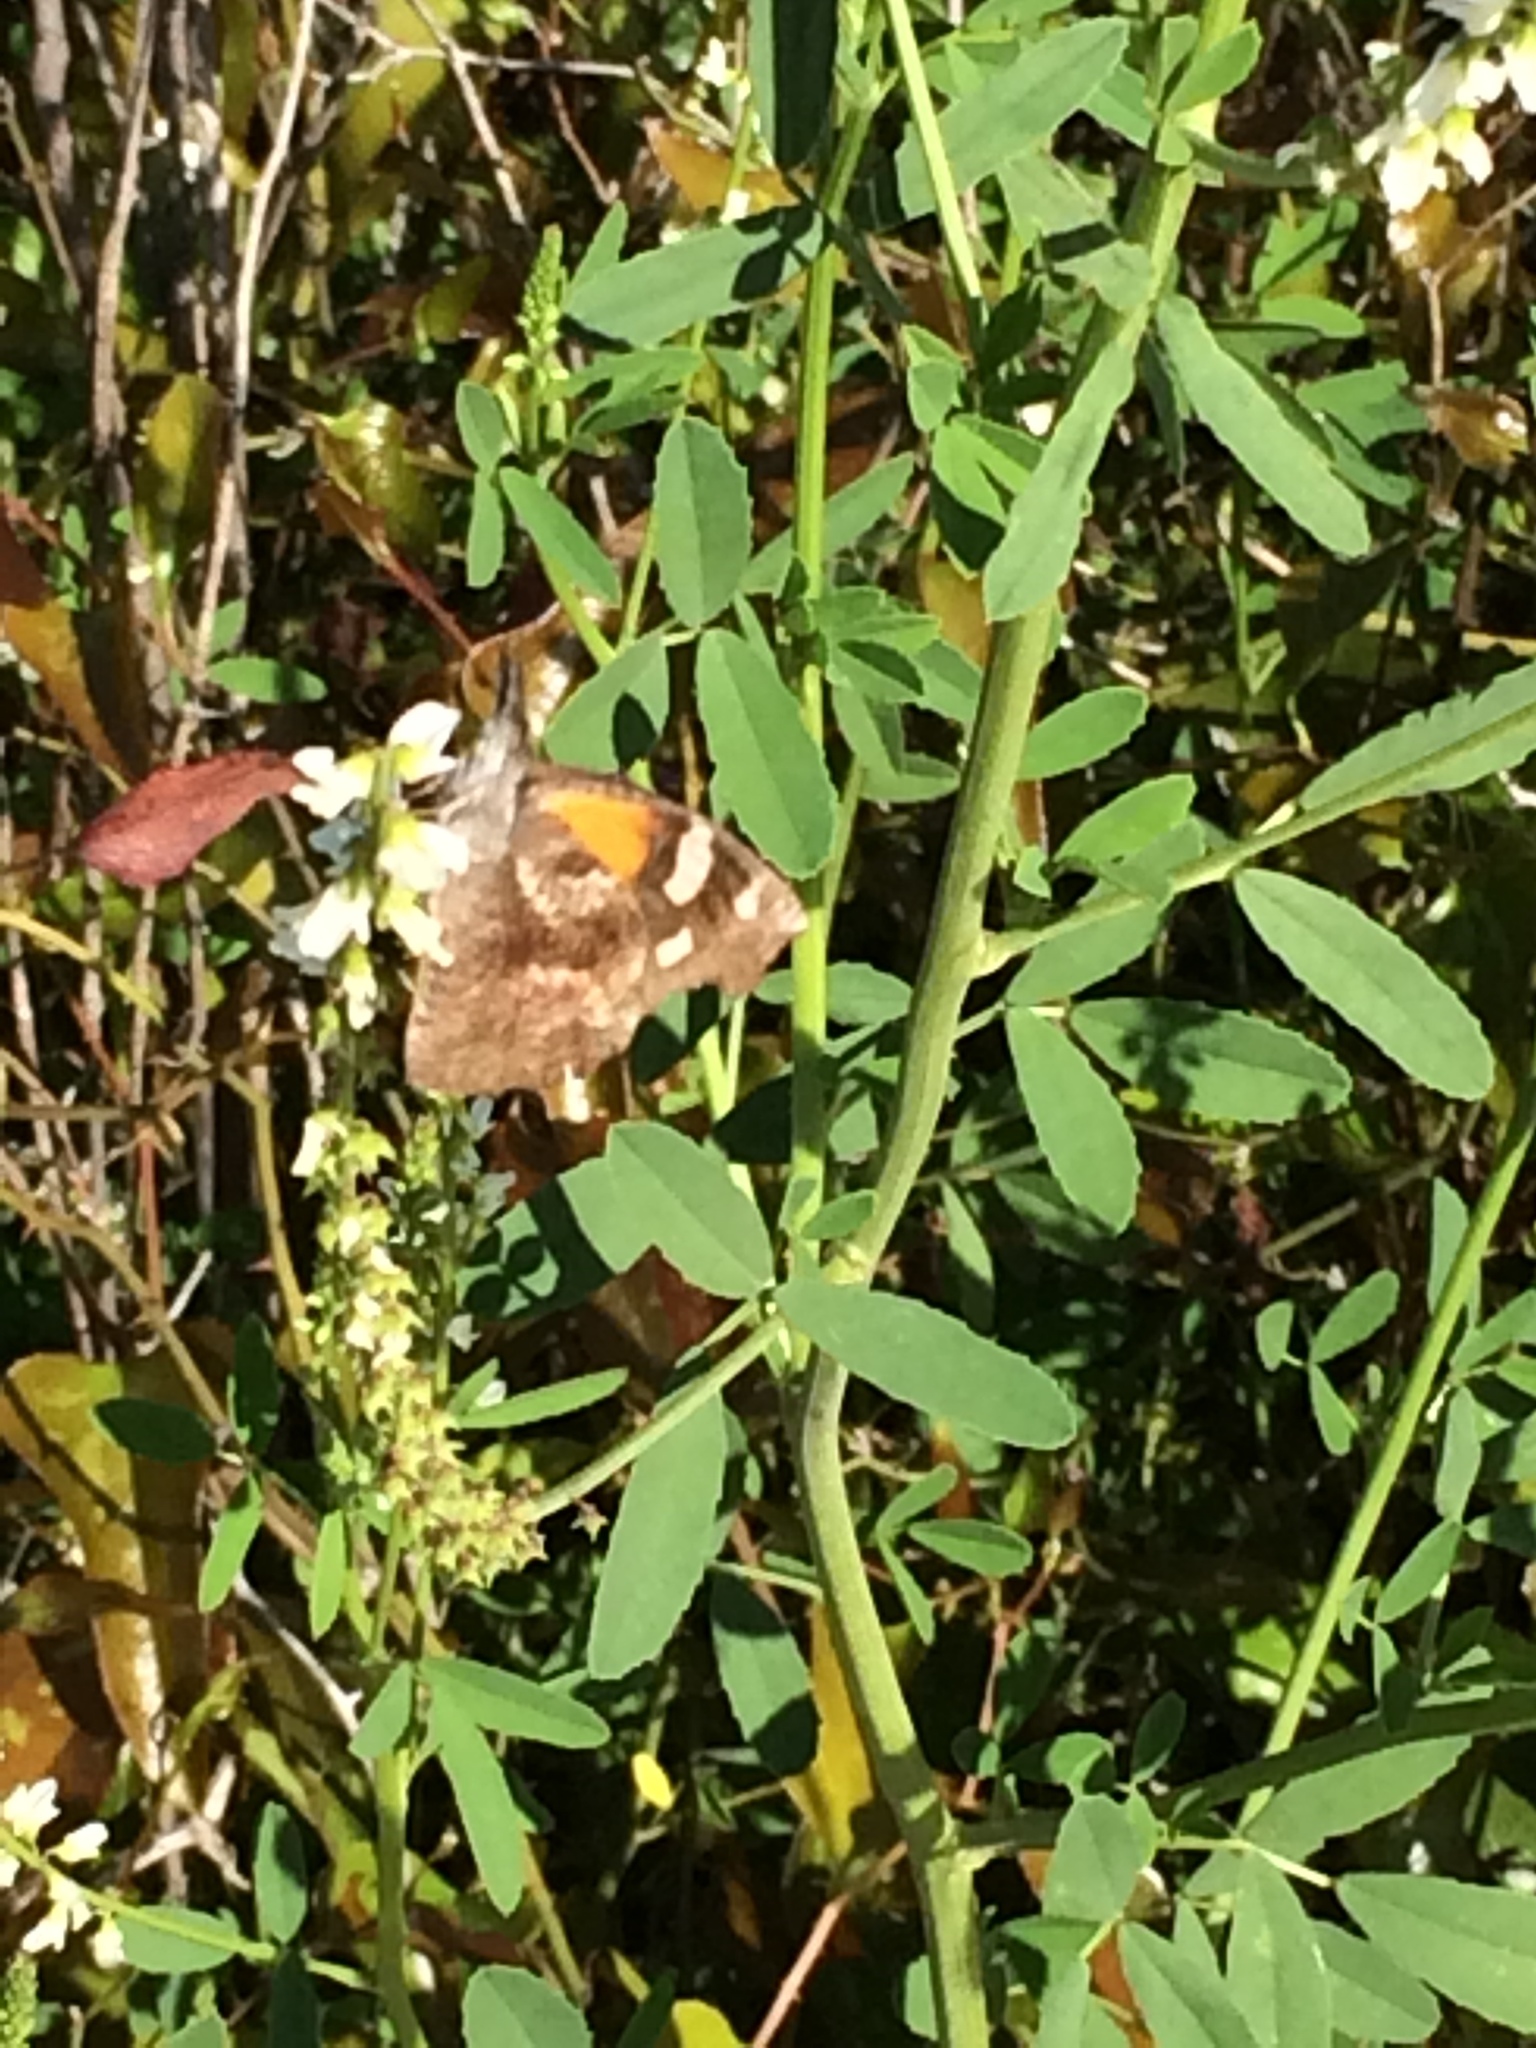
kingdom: Animalia
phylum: Arthropoda
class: Insecta
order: Lepidoptera
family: Nymphalidae
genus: Libytheana
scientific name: Libytheana carinenta
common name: American snout
